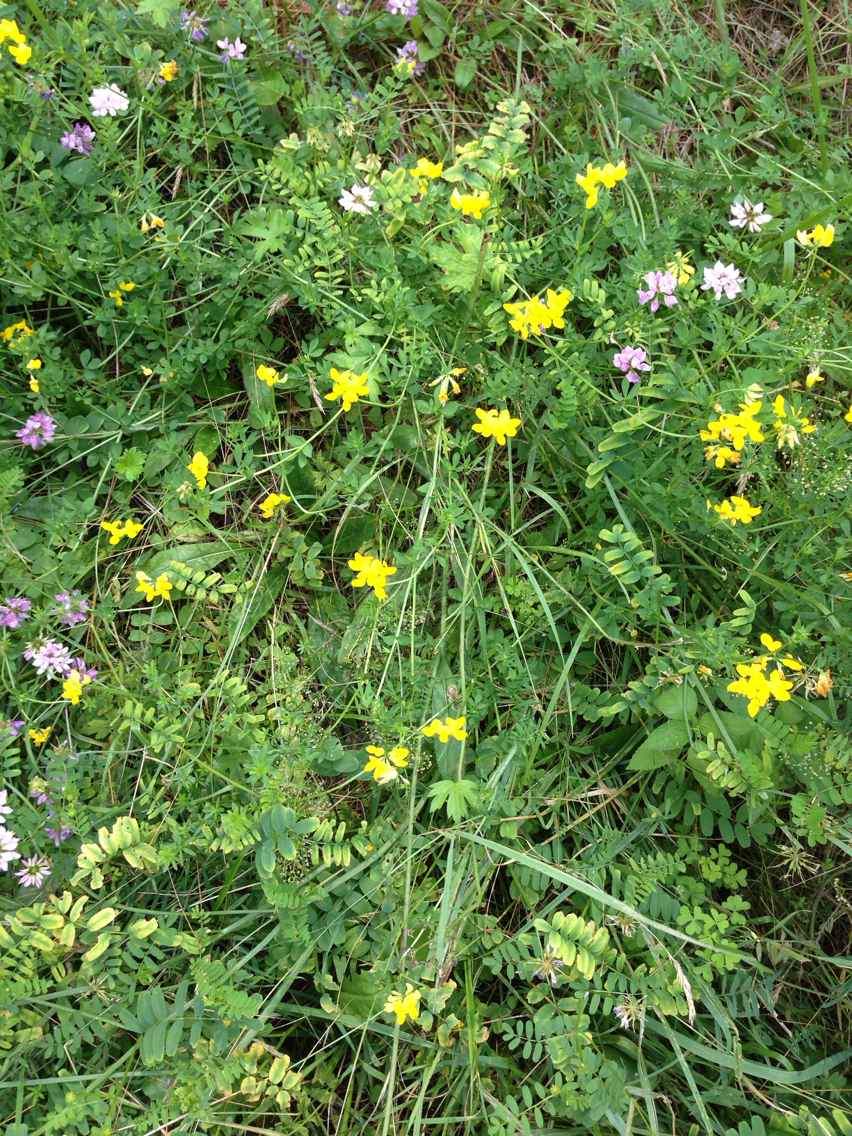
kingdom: Plantae
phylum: Tracheophyta
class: Magnoliopsida
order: Fabales
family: Fabaceae
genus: Lotus
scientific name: Lotus corniculatus
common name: Common bird's-foot-trefoil
